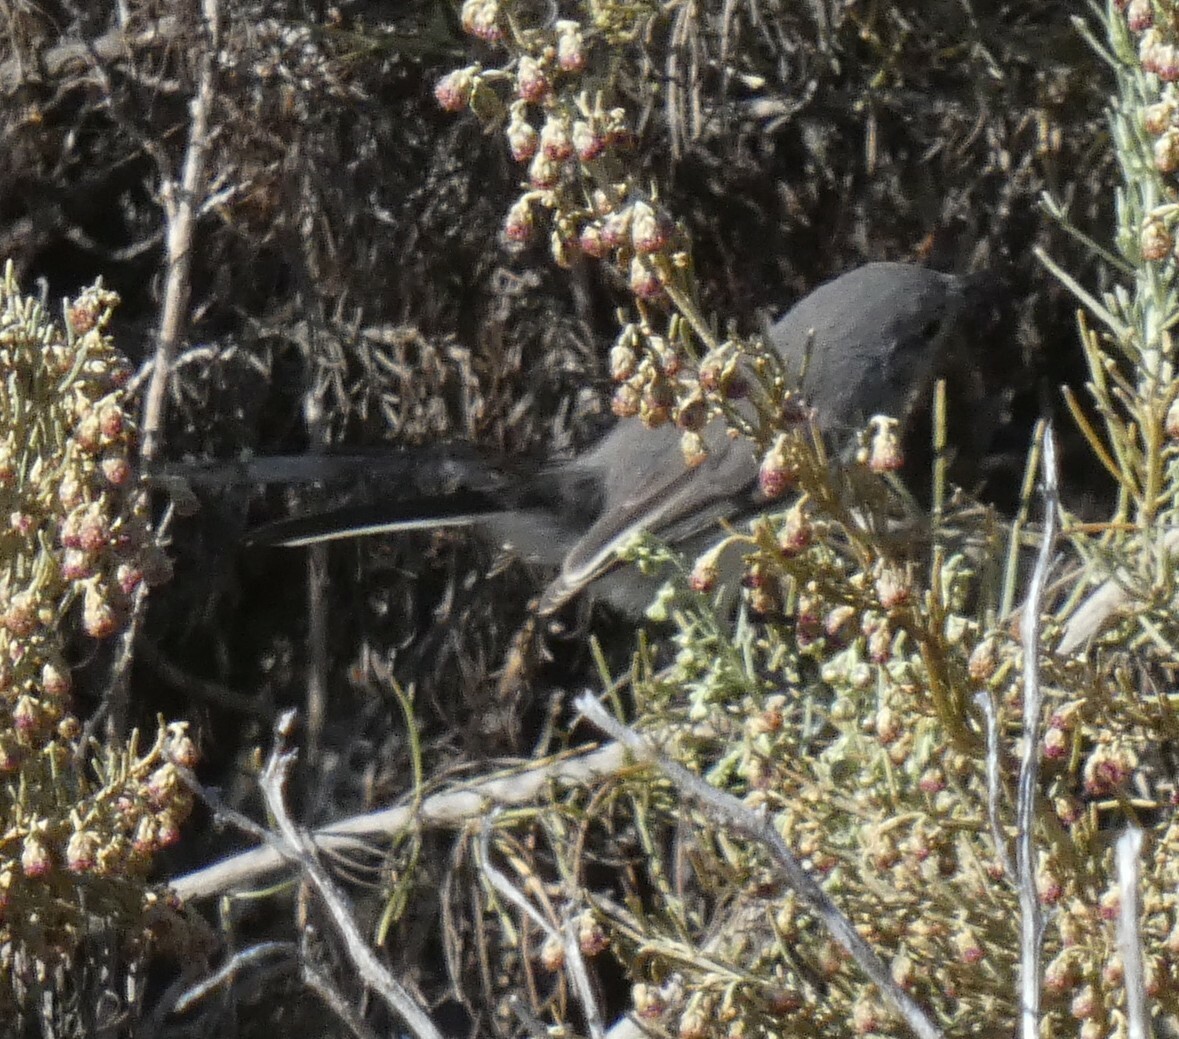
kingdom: Animalia
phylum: Chordata
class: Aves
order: Passeriformes
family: Polioptilidae
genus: Polioptila
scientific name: Polioptila caerulea
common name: Blue-gray gnatcatcher
